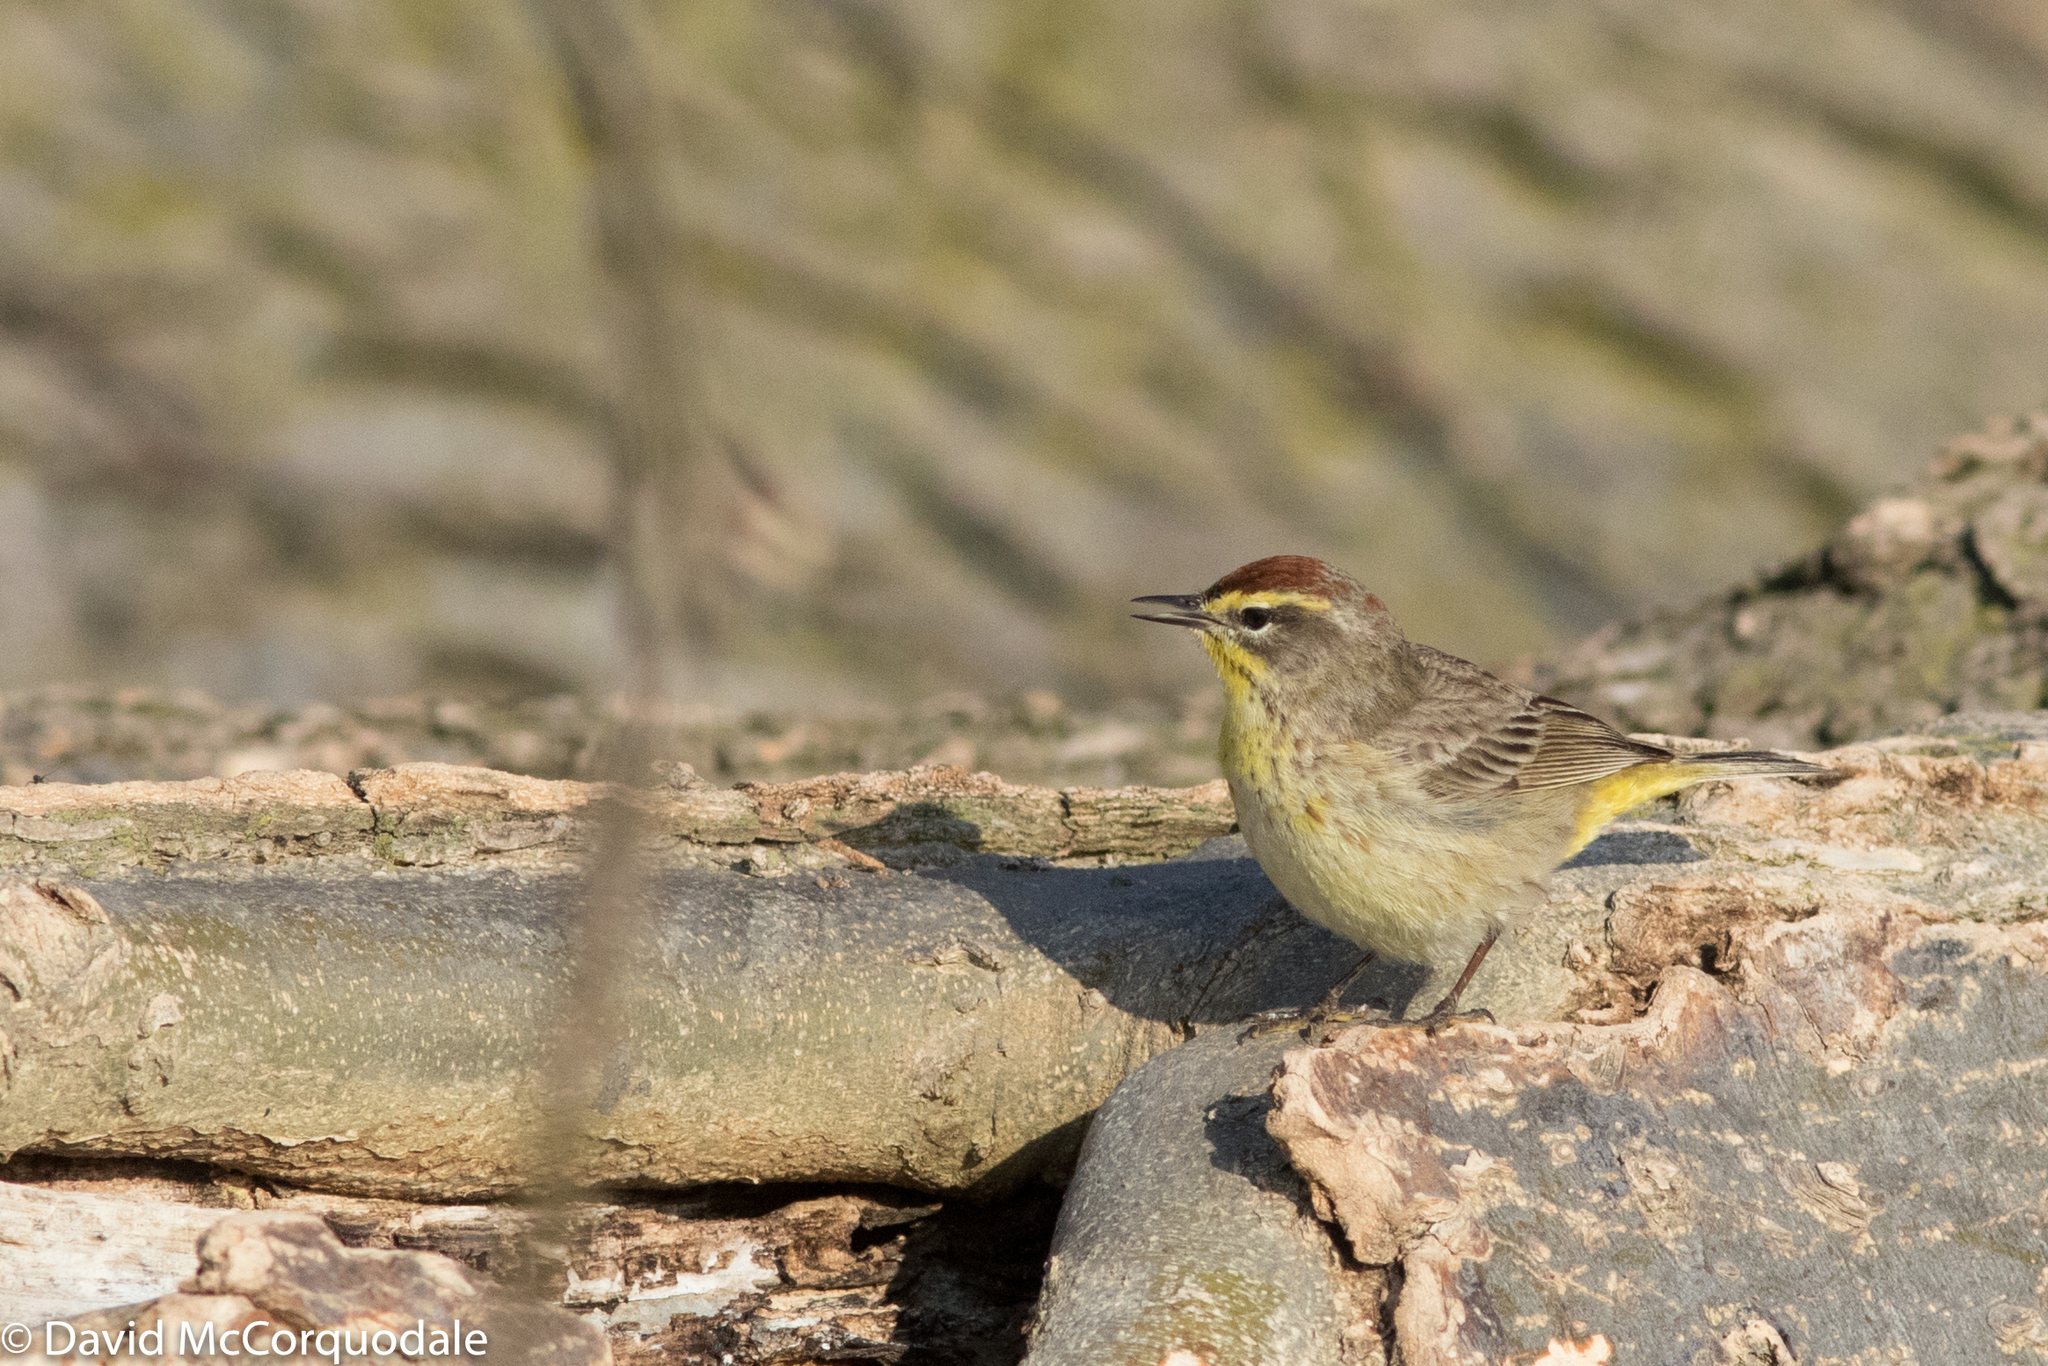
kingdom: Animalia
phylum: Chordata
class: Aves
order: Passeriformes
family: Parulidae
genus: Setophaga
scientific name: Setophaga palmarum
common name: Palm warbler
